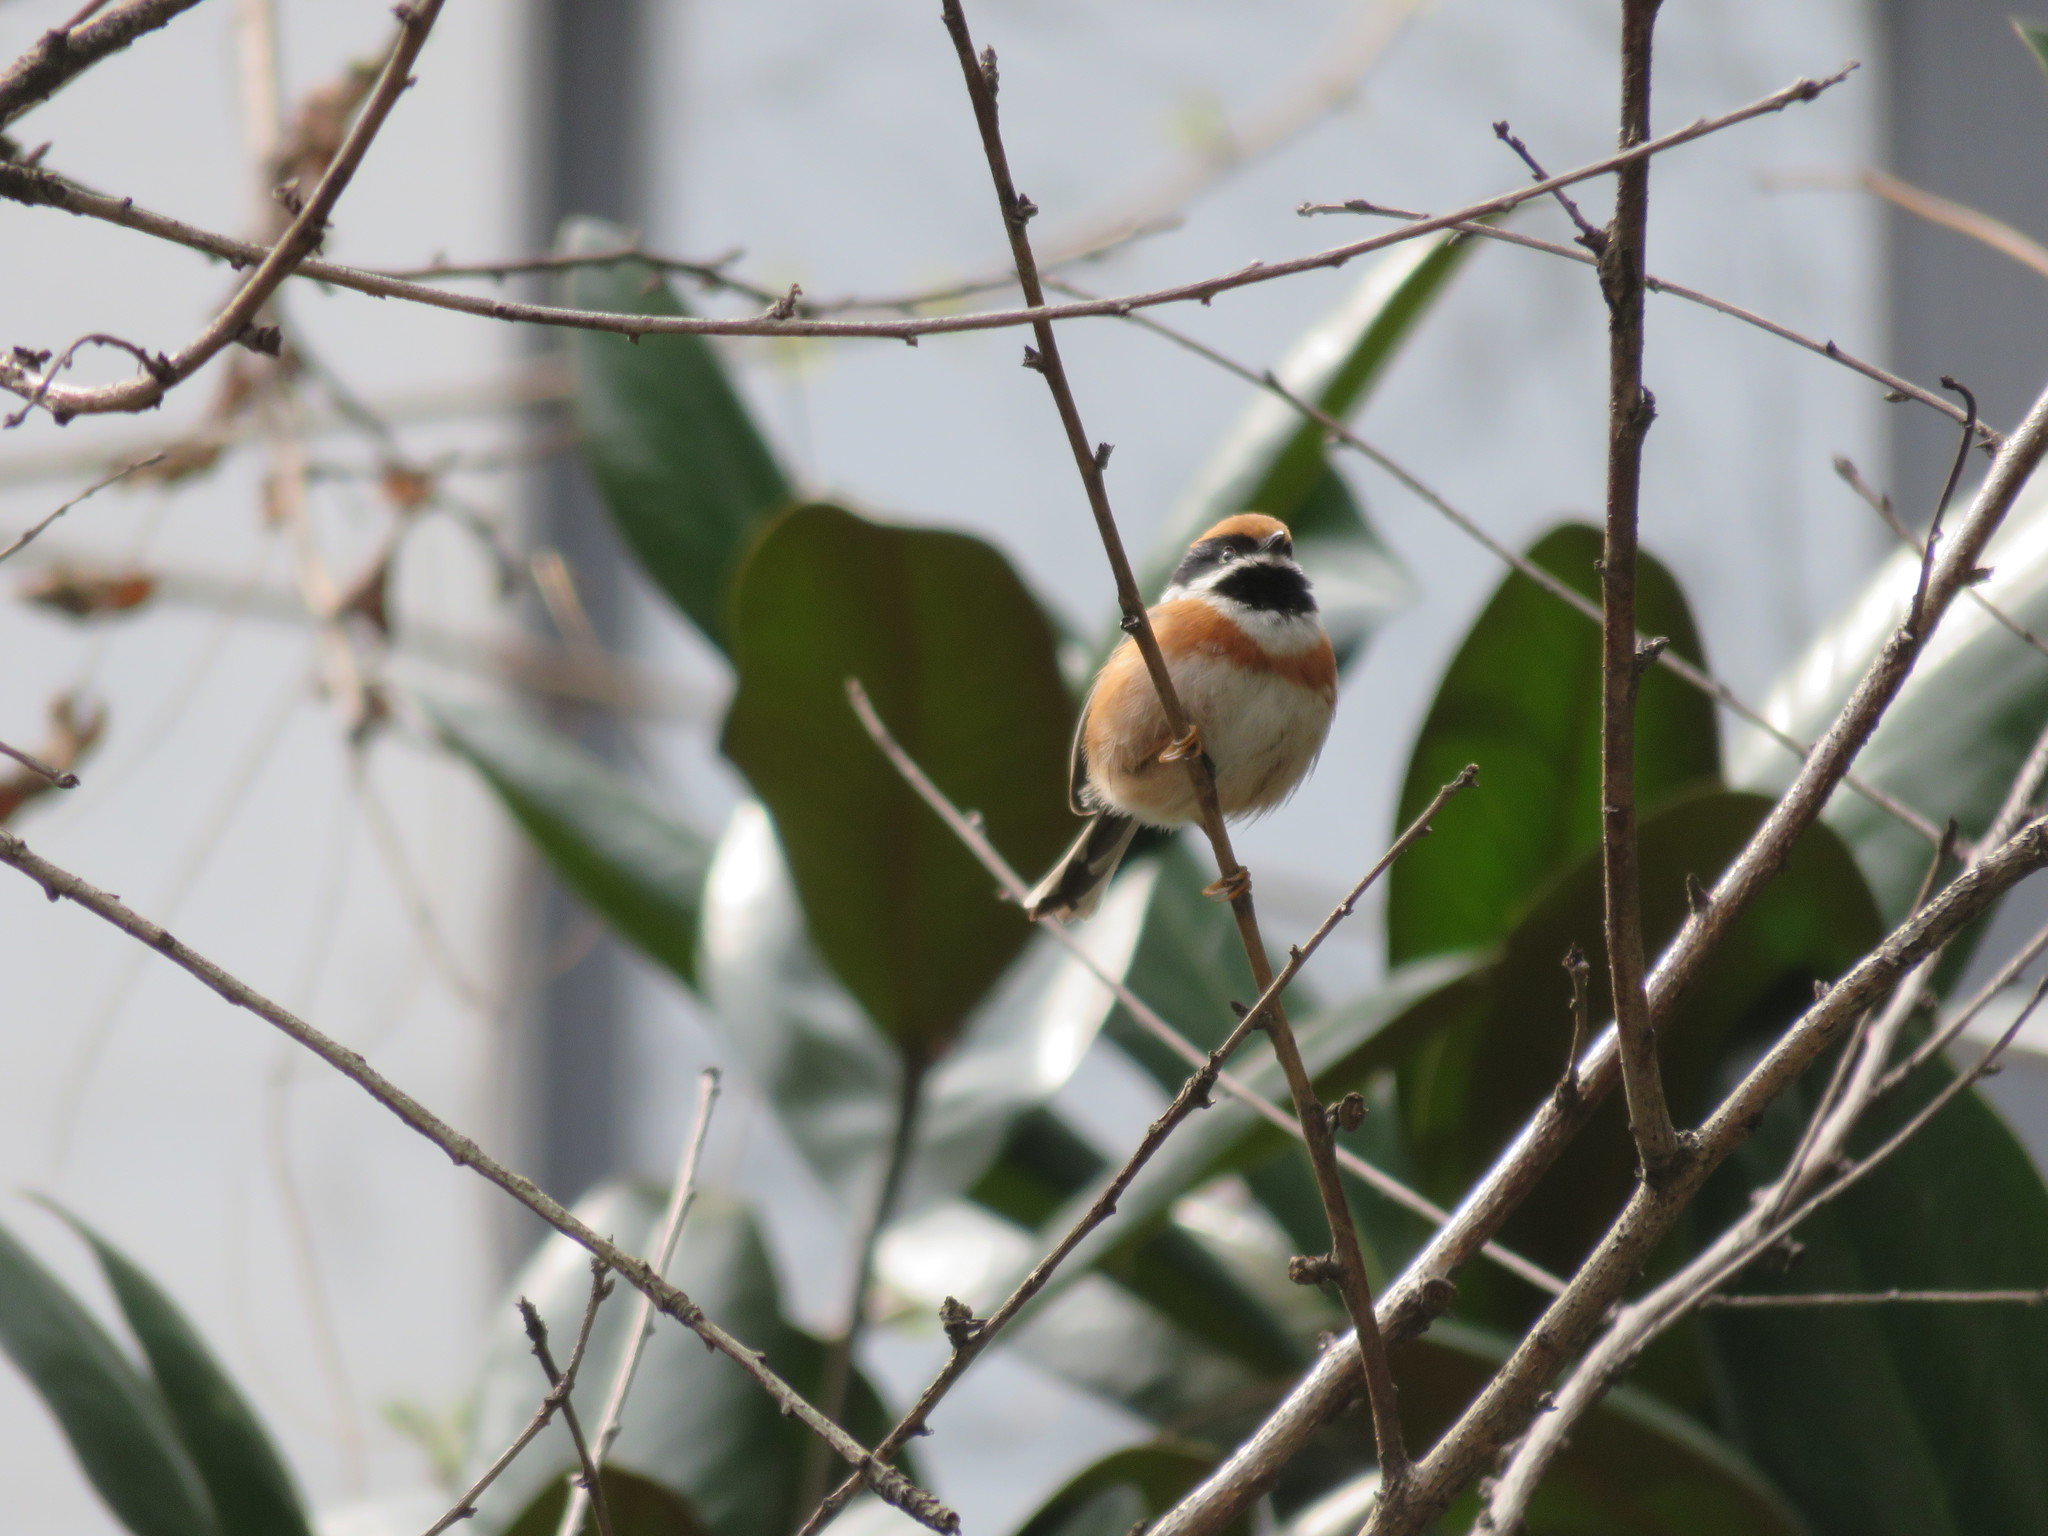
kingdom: Animalia
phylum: Chordata
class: Aves
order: Passeriformes
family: Aegithalidae
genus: Aegithalos
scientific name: Aegithalos concinnus
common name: Black-throated bushtit
